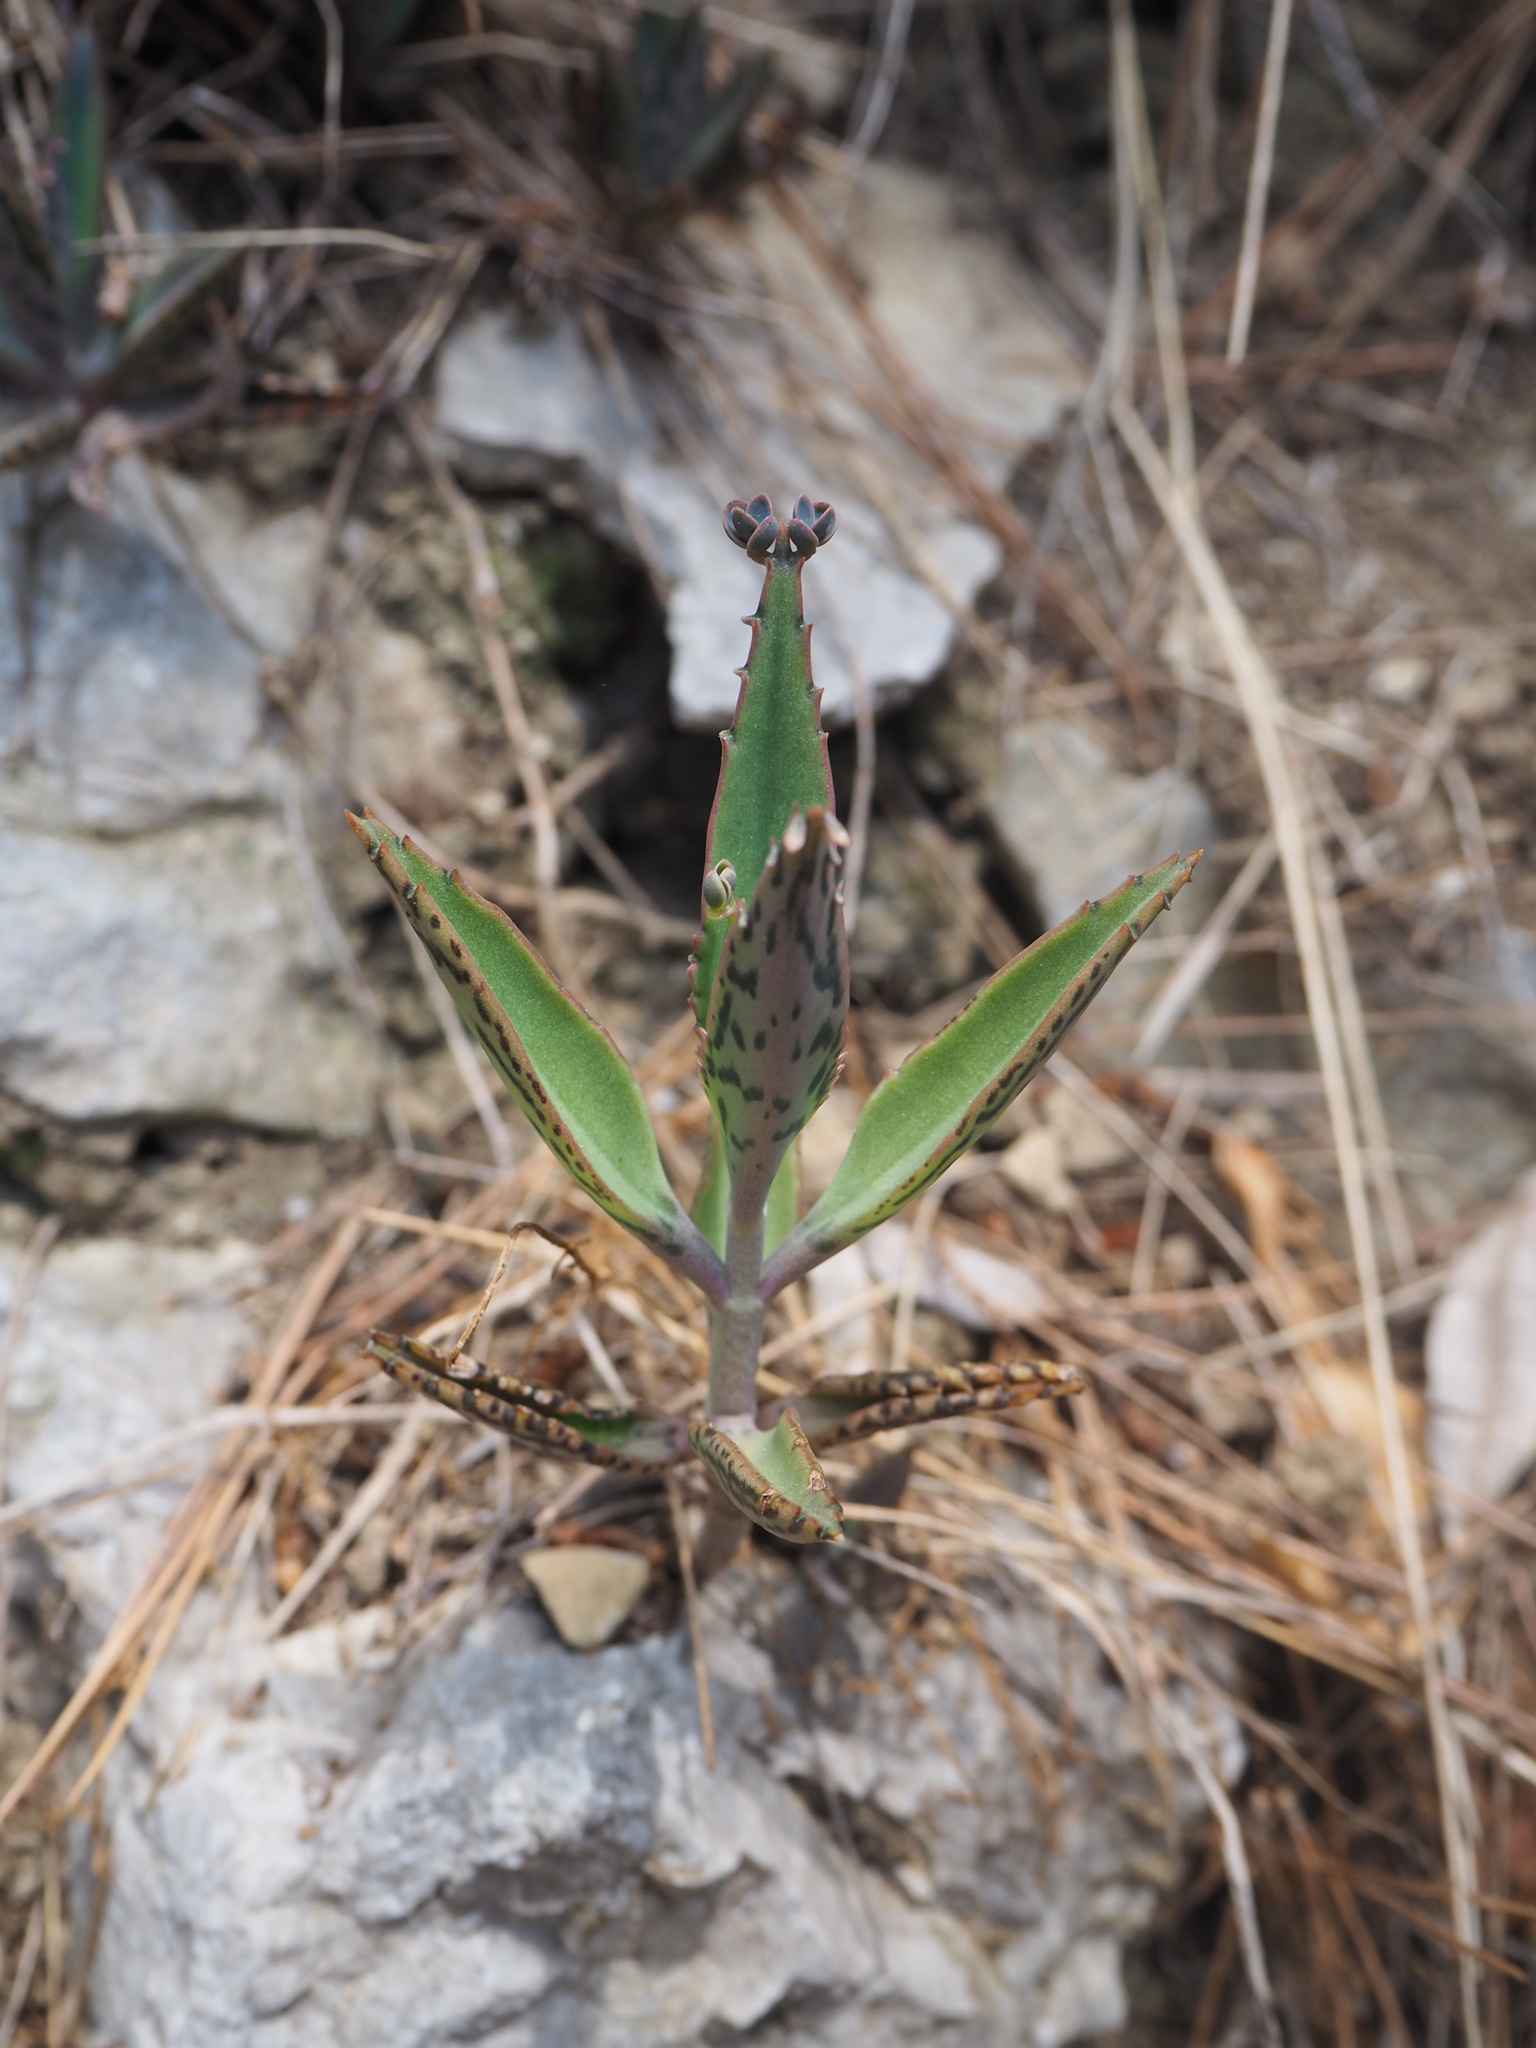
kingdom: Plantae
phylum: Tracheophyta
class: Magnoliopsida
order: Saxifragales
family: Crassulaceae
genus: Kalanchoe
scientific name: Kalanchoe houghtonii
